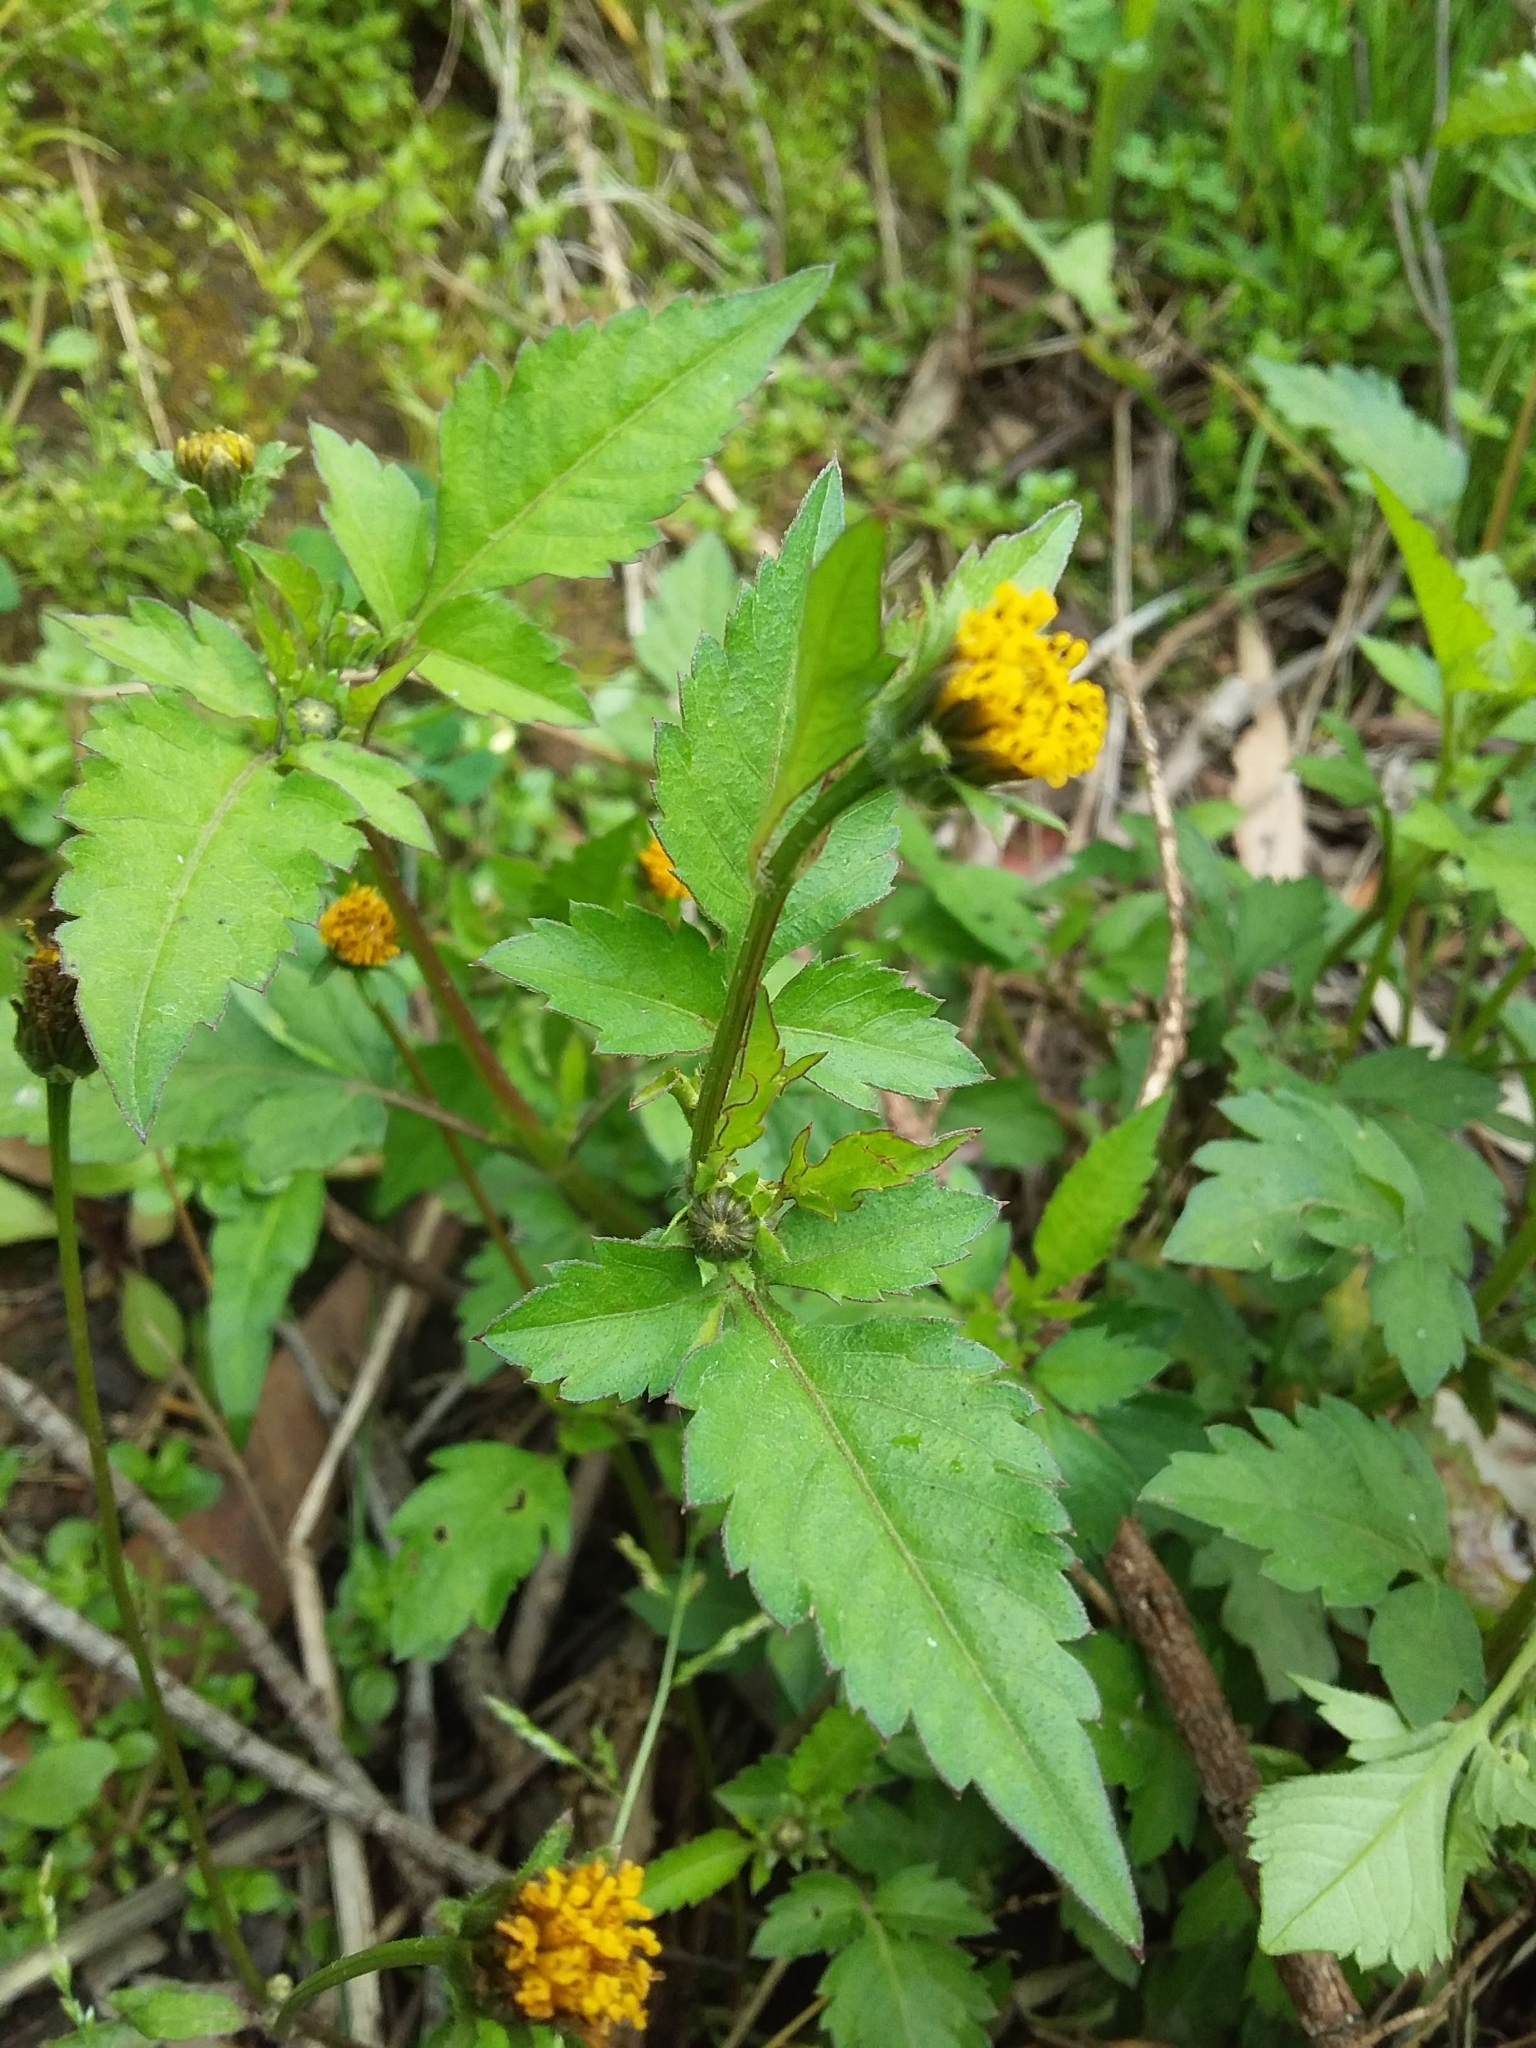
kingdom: Plantae
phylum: Tracheophyta
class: Magnoliopsida
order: Asterales
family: Asteraceae
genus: Bidens
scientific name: Bidens pilosa
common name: Black-jack
